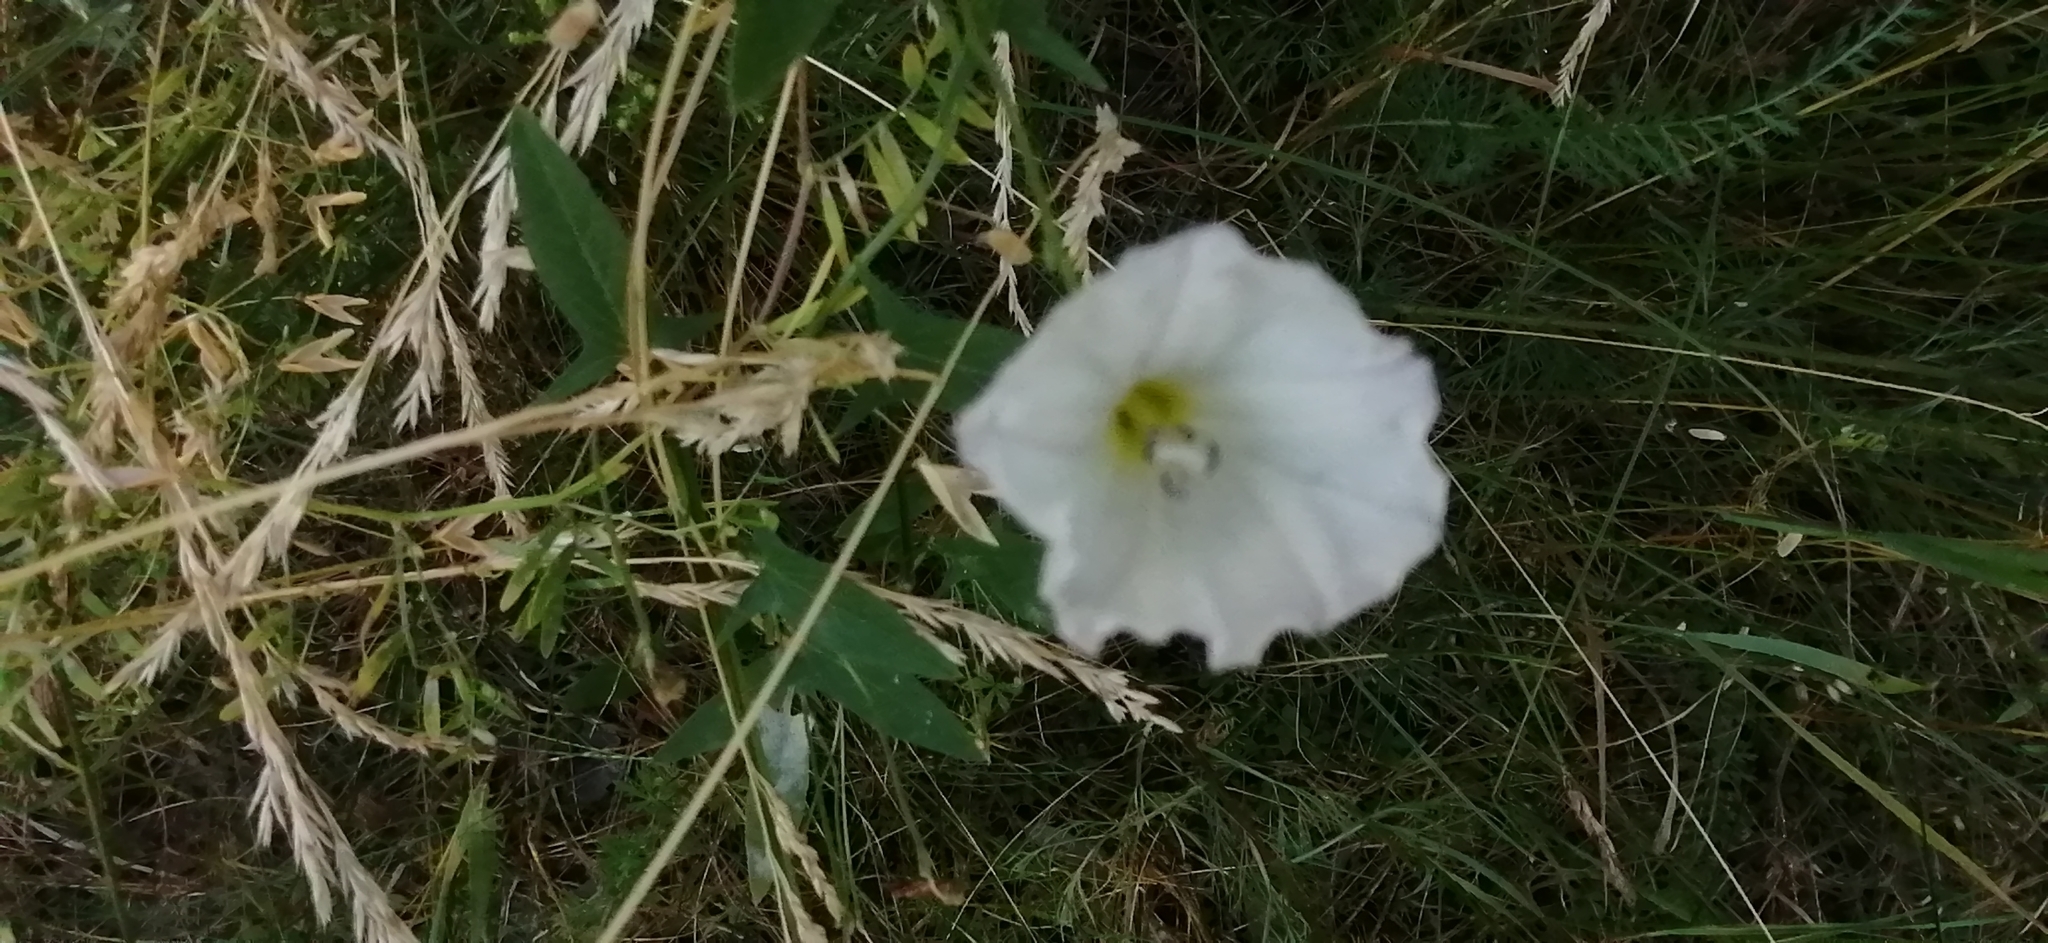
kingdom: Plantae
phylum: Tracheophyta
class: Magnoliopsida
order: Solanales
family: Convolvulaceae
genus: Convolvulus
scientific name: Convolvulus arvensis
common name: Field bindweed
